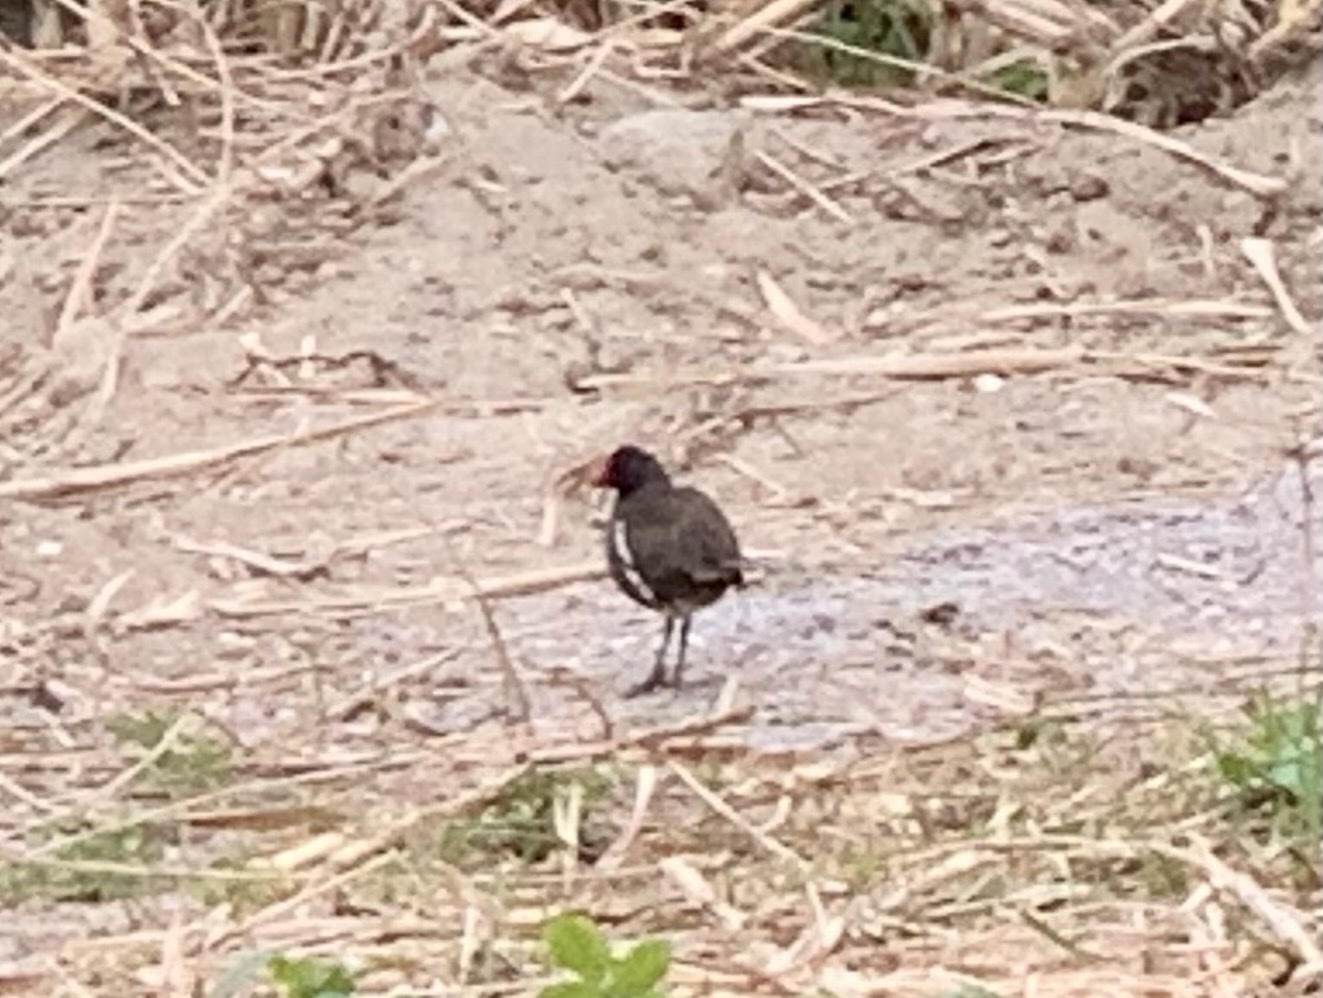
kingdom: Animalia
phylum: Chordata
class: Aves
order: Gruiformes
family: Rallidae
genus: Gallinula
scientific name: Gallinula chloropus
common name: Common moorhen
